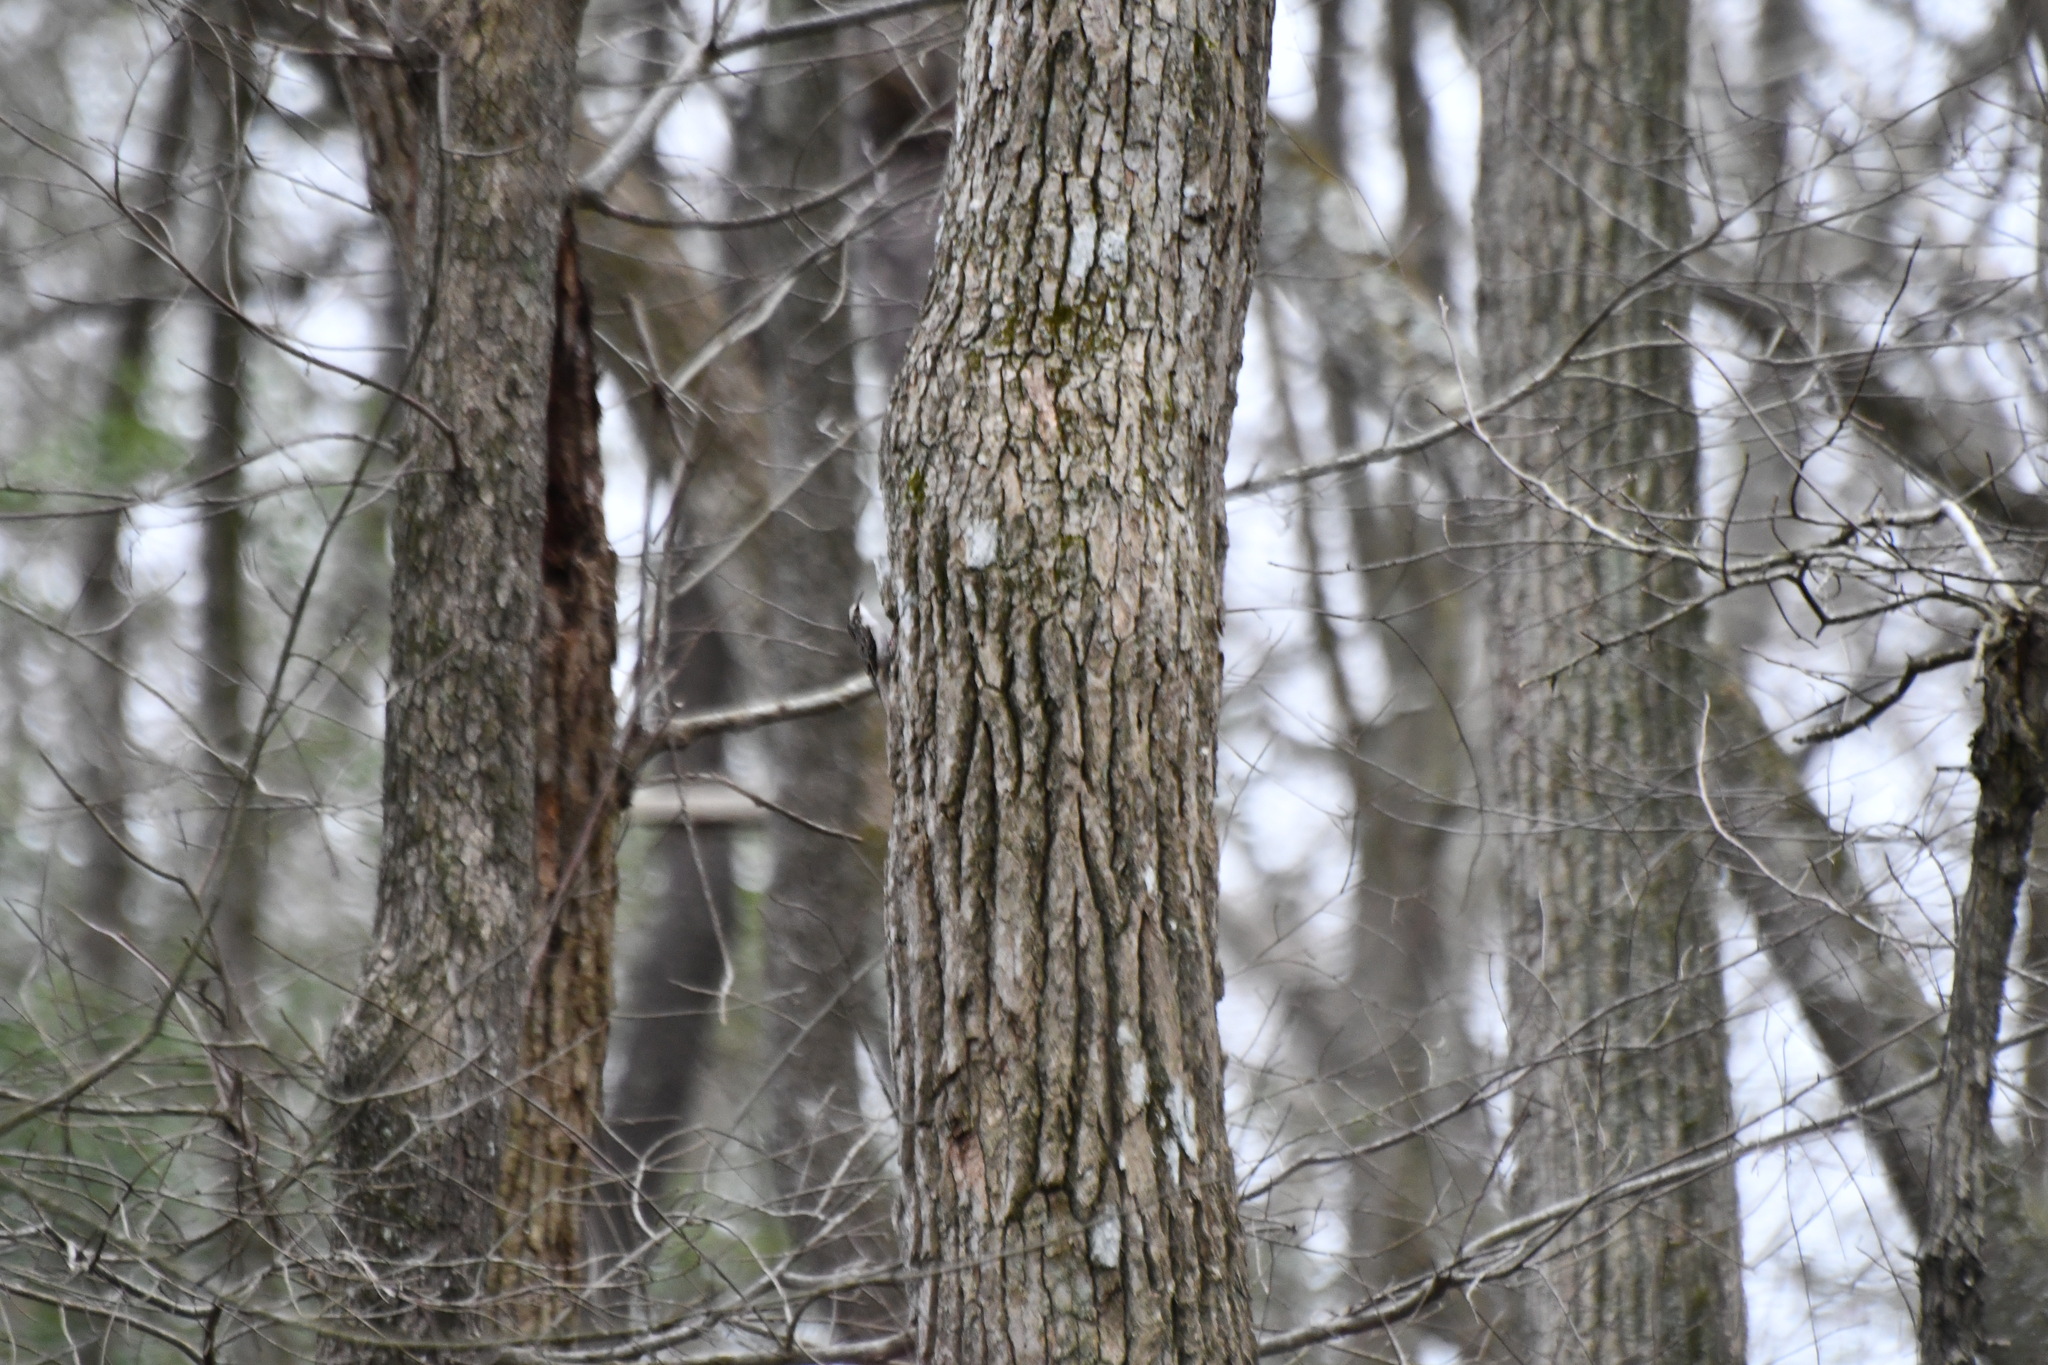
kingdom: Animalia
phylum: Chordata
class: Aves
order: Passeriformes
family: Certhiidae
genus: Certhia
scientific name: Certhia americana
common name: Brown creeper
